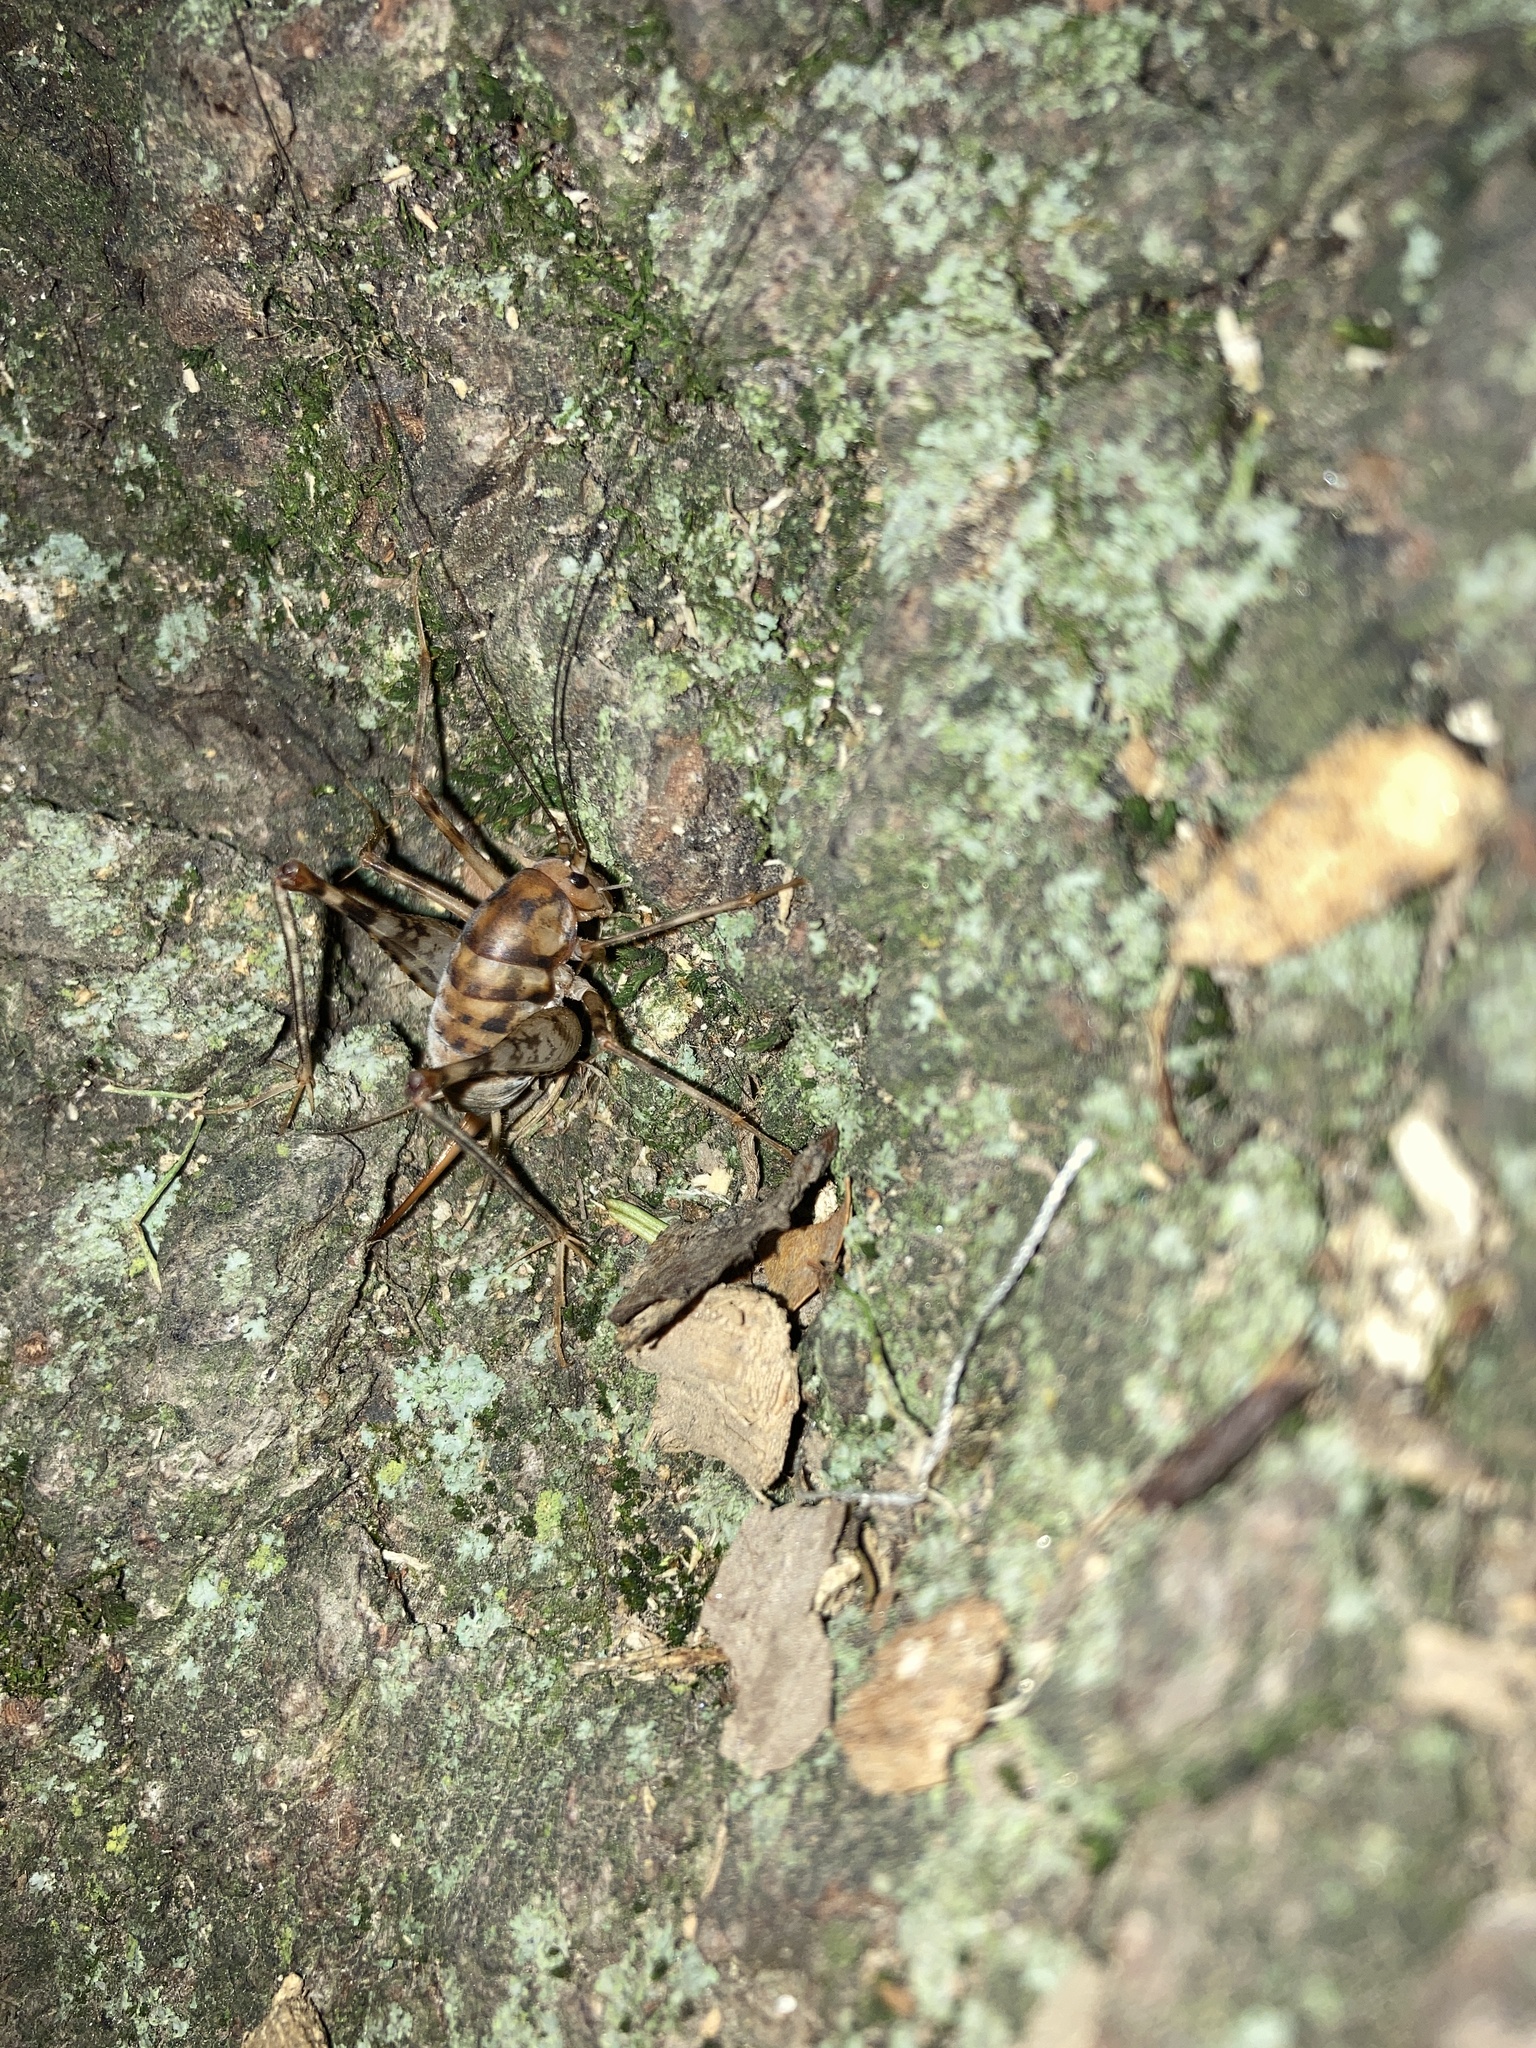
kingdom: Animalia
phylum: Arthropoda
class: Insecta
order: Orthoptera
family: Rhaphidophoridae
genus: Tachycines
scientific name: Tachycines asynamorus
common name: Greenhouse camel cricket
